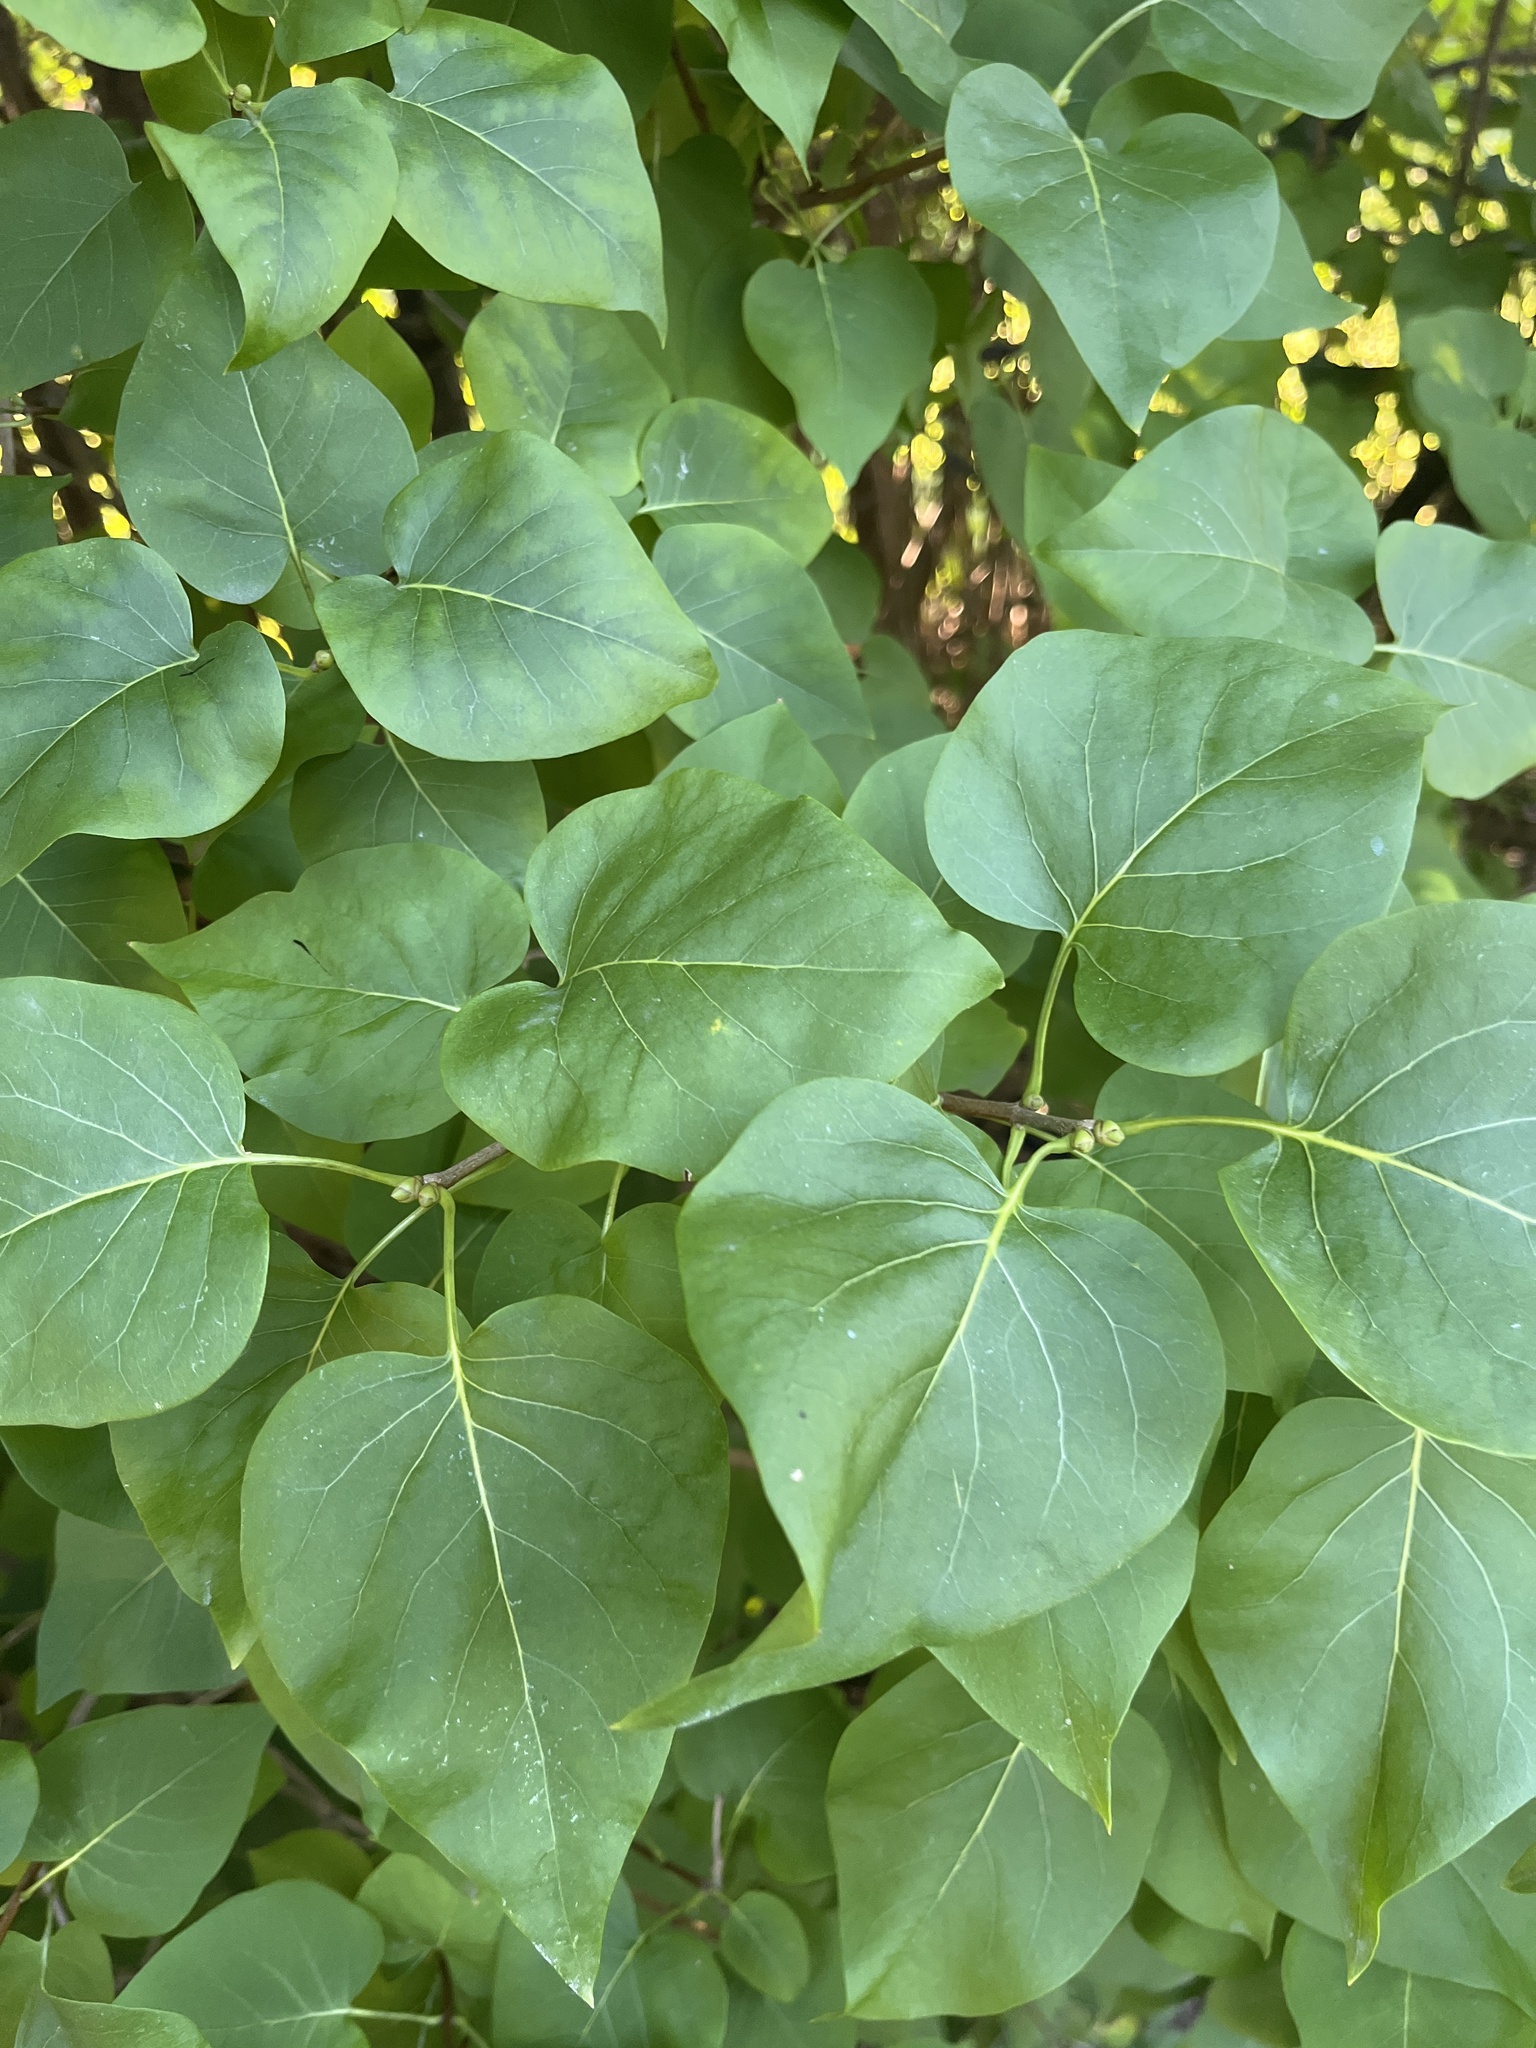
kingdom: Plantae
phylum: Tracheophyta
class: Magnoliopsida
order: Lamiales
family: Oleaceae
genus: Syringa
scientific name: Syringa vulgaris
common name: Common lilac
